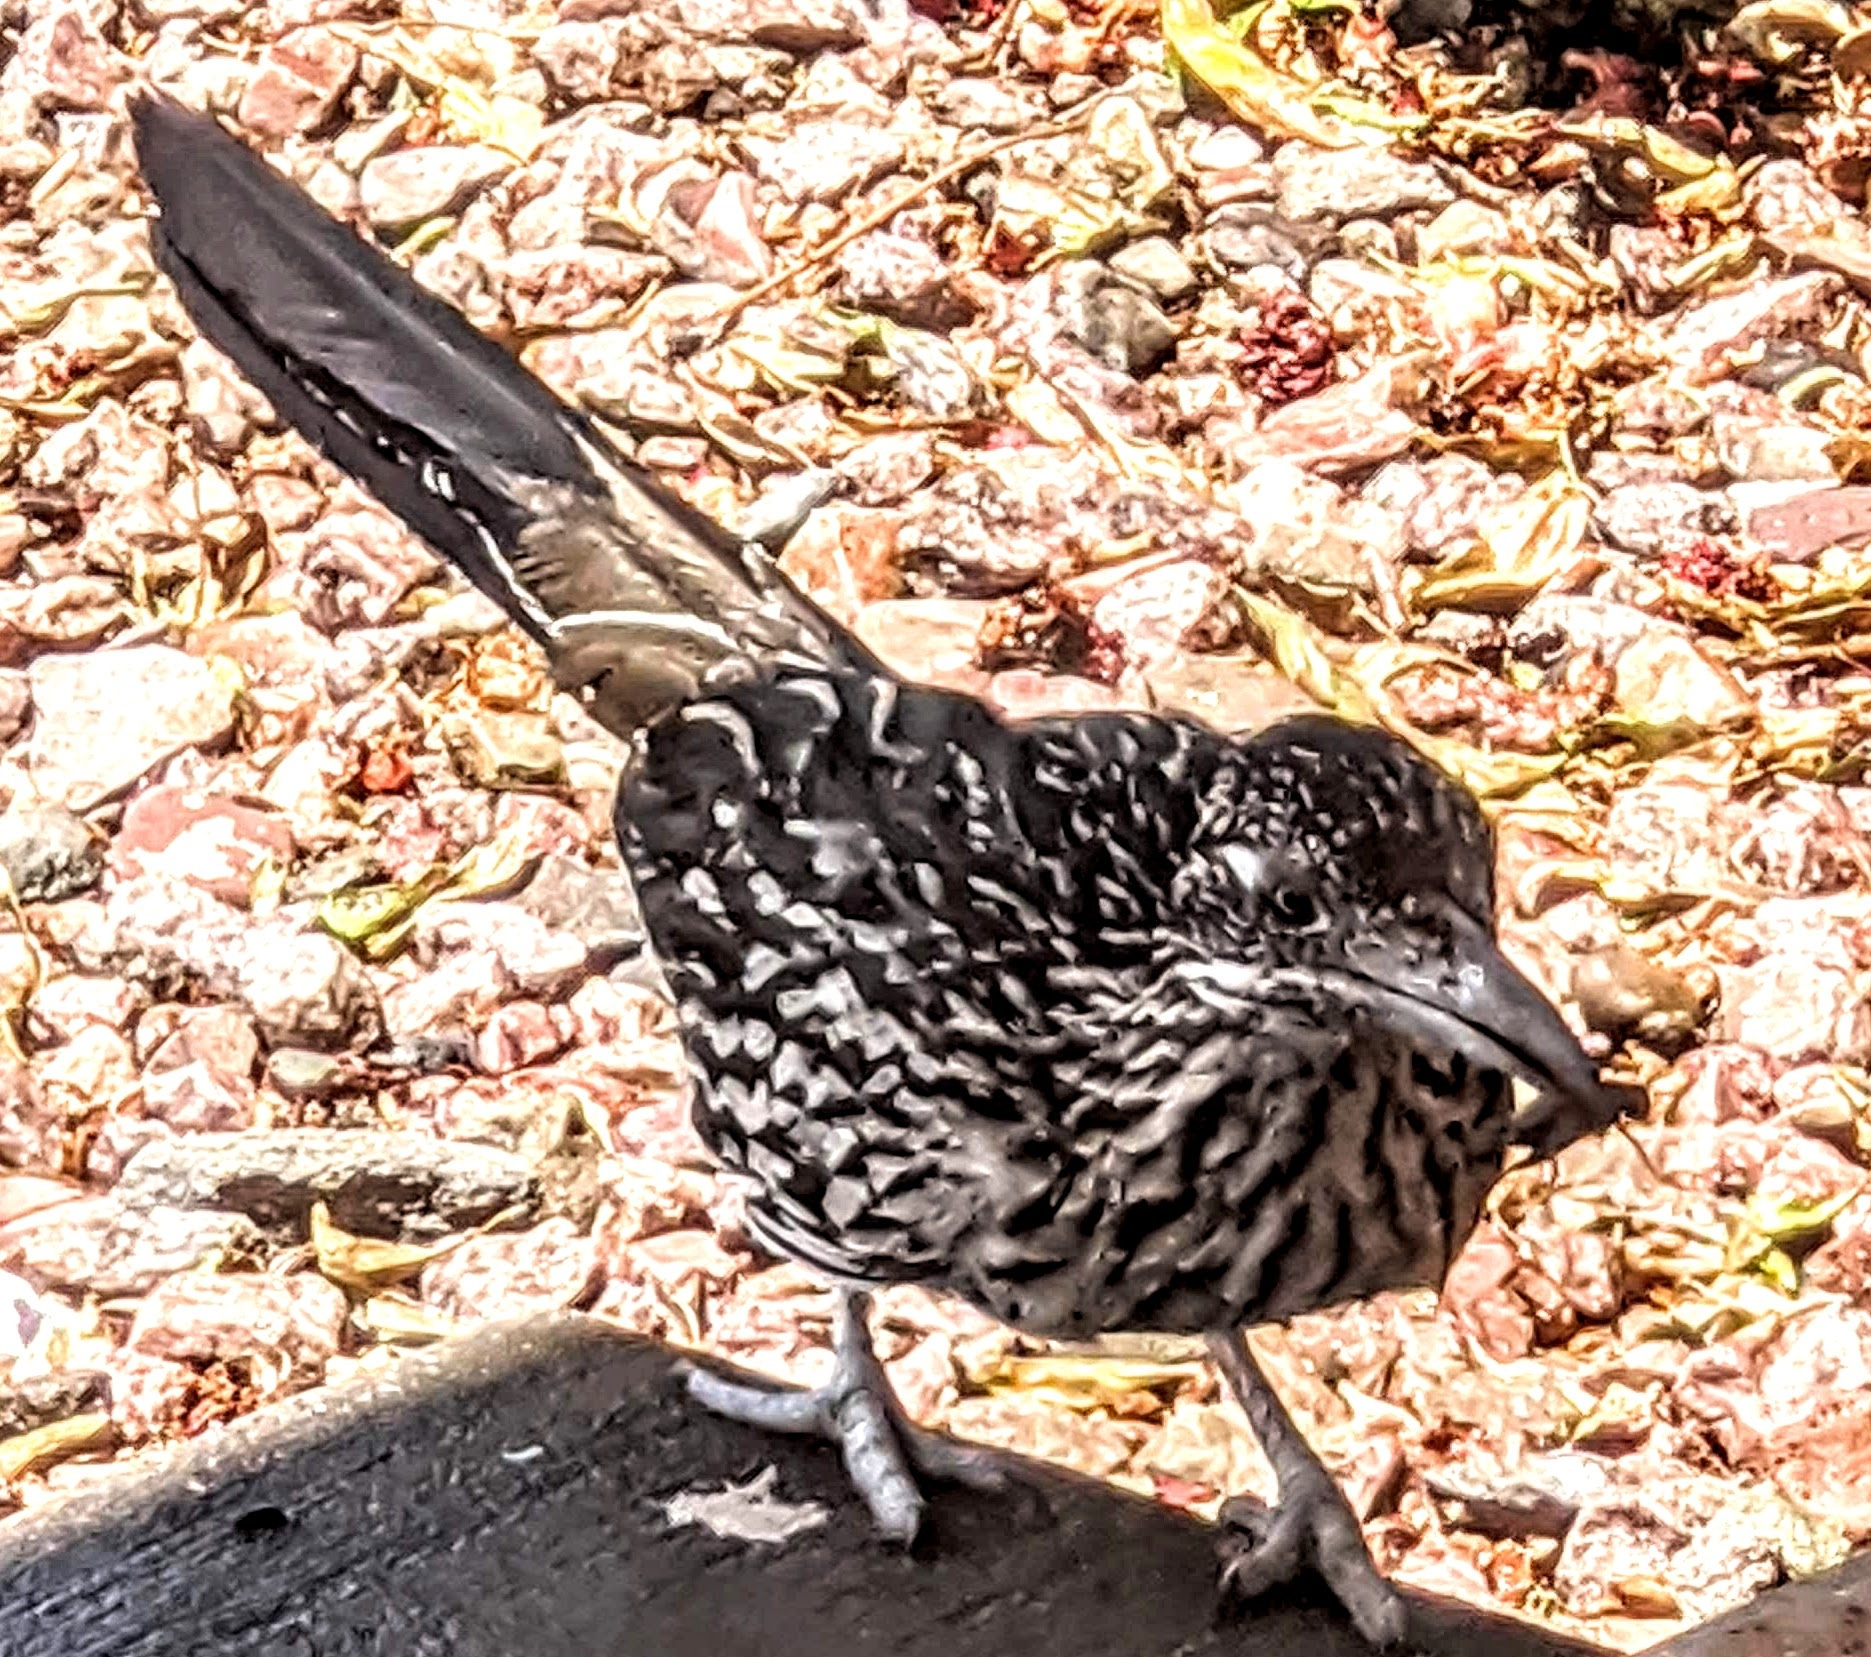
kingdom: Animalia
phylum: Chordata
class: Aves
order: Cuculiformes
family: Cuculidae
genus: Geococcyx
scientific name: Geococcyx californianus
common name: Greater roadrunner
